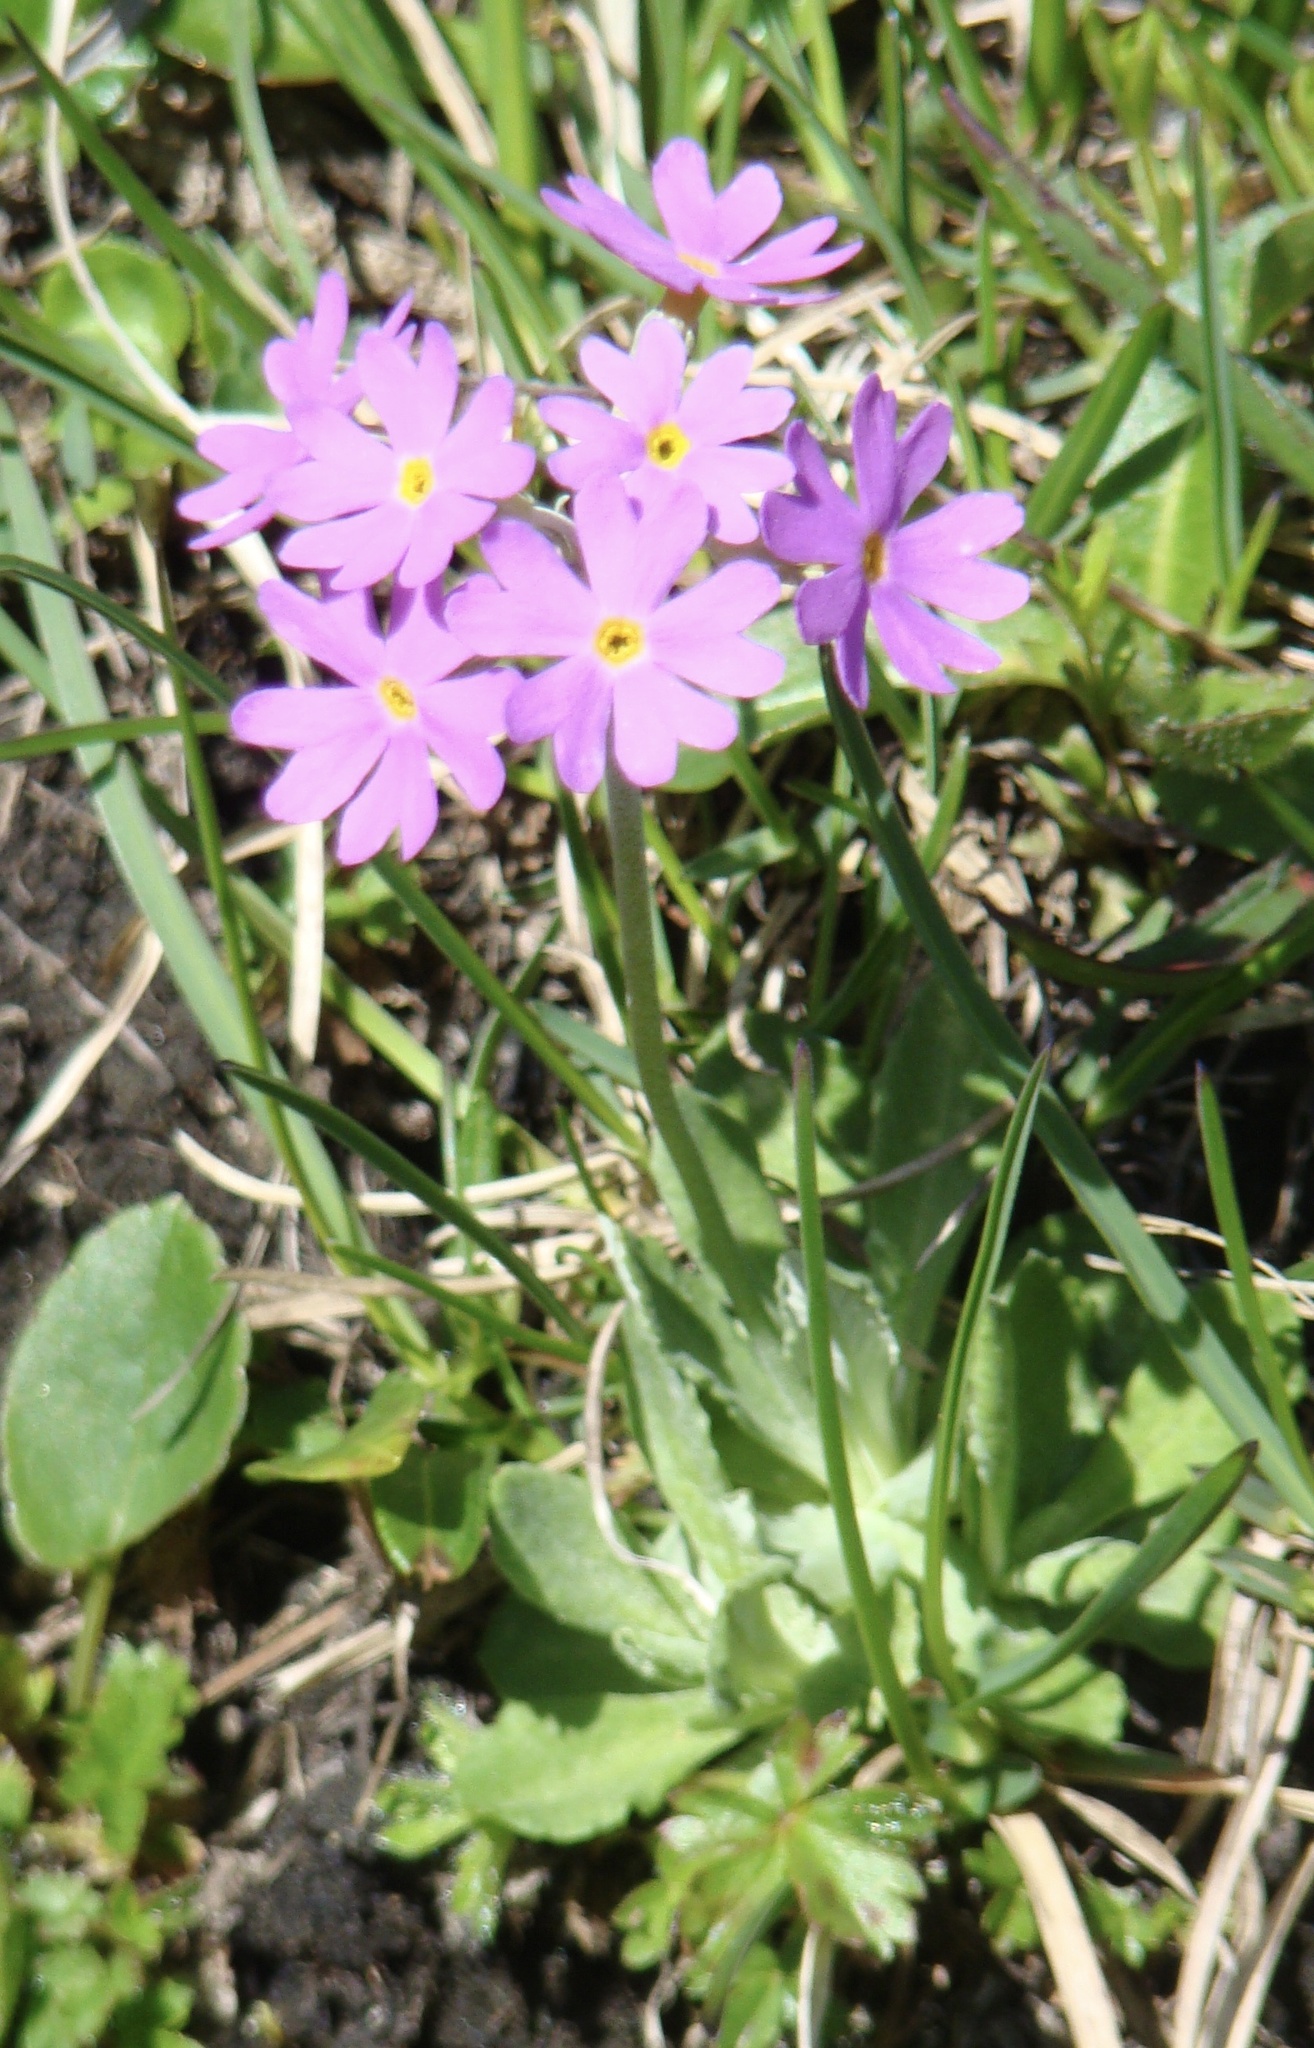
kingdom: Plantae
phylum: Tracheophyta
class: Magnoliopsida
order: Ericales
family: Primulaceae
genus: Primula
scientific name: Primula farinosa
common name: Bird's-eye primrose
